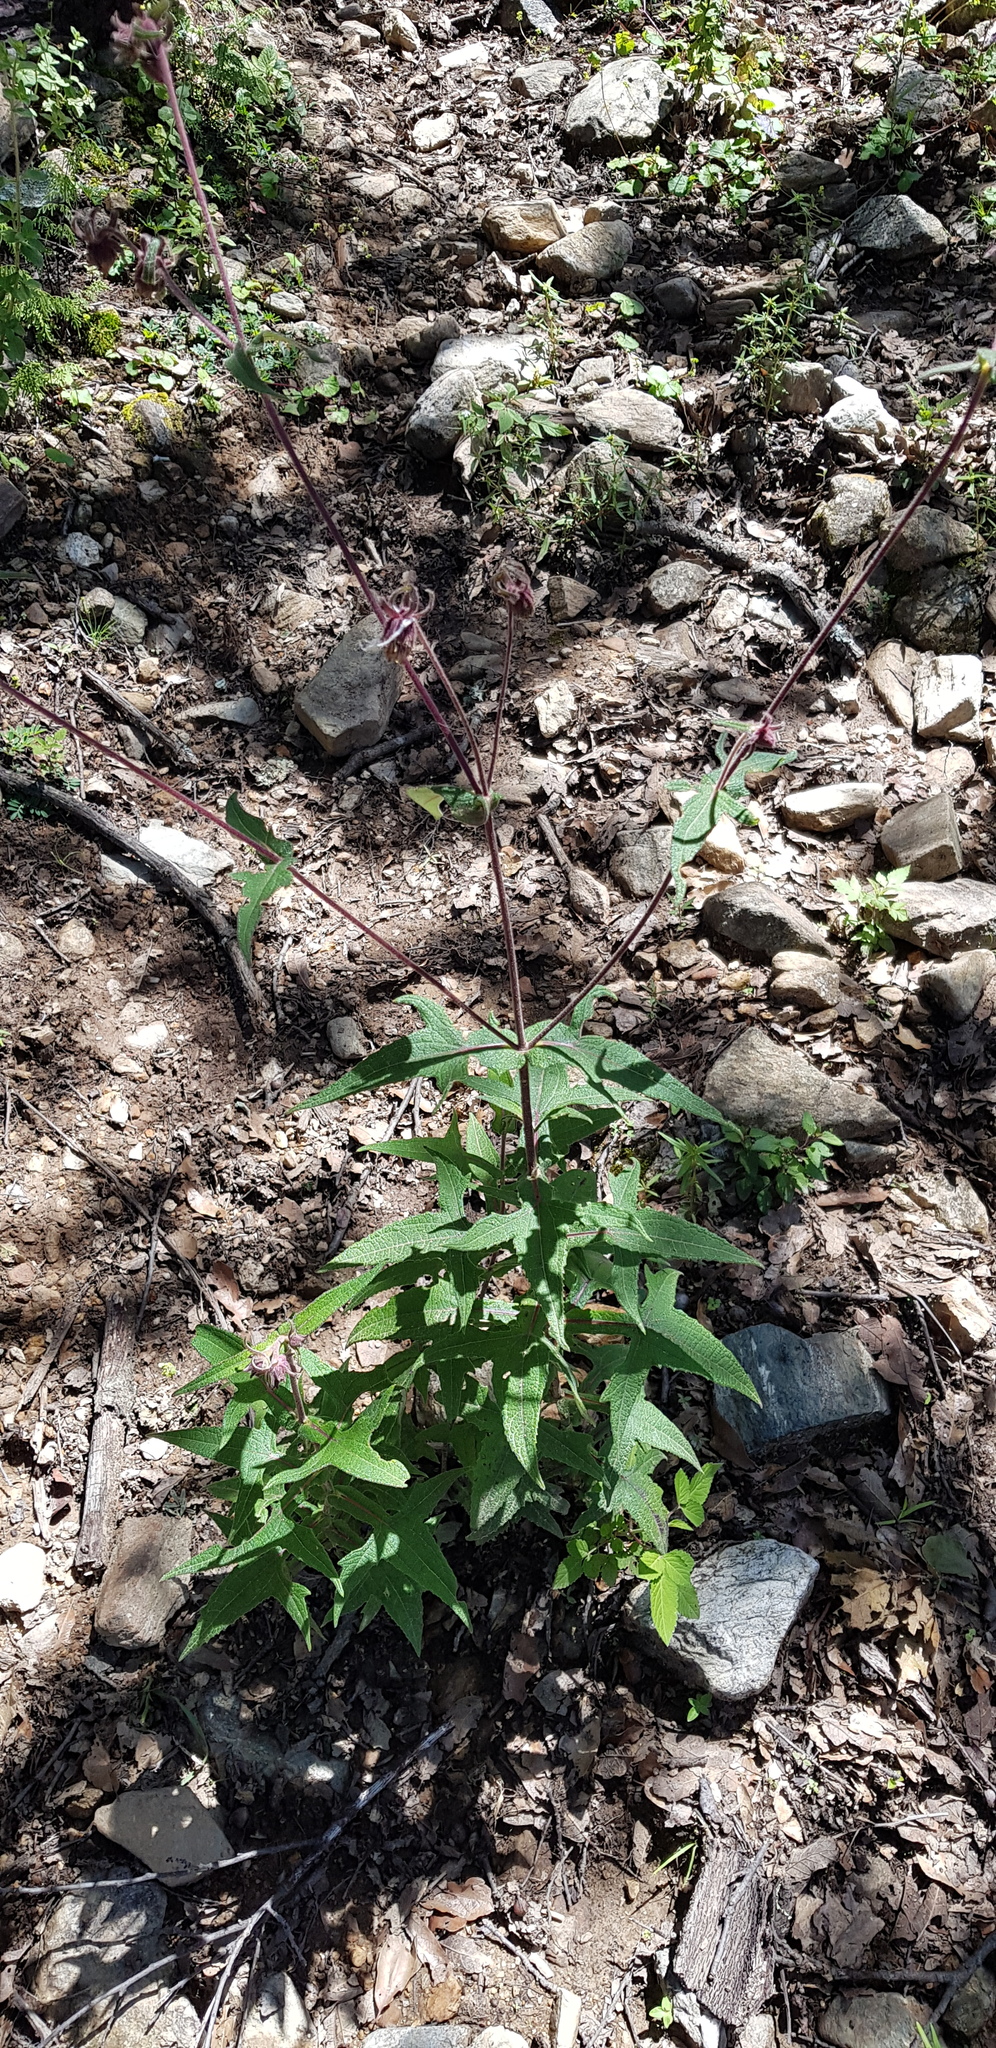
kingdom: Plantae
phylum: Tracheophyta
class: Magnoliopsida
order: Asterales
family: Asteraceae
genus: Axiniphyllum
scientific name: Axiniphyllum scabrum
